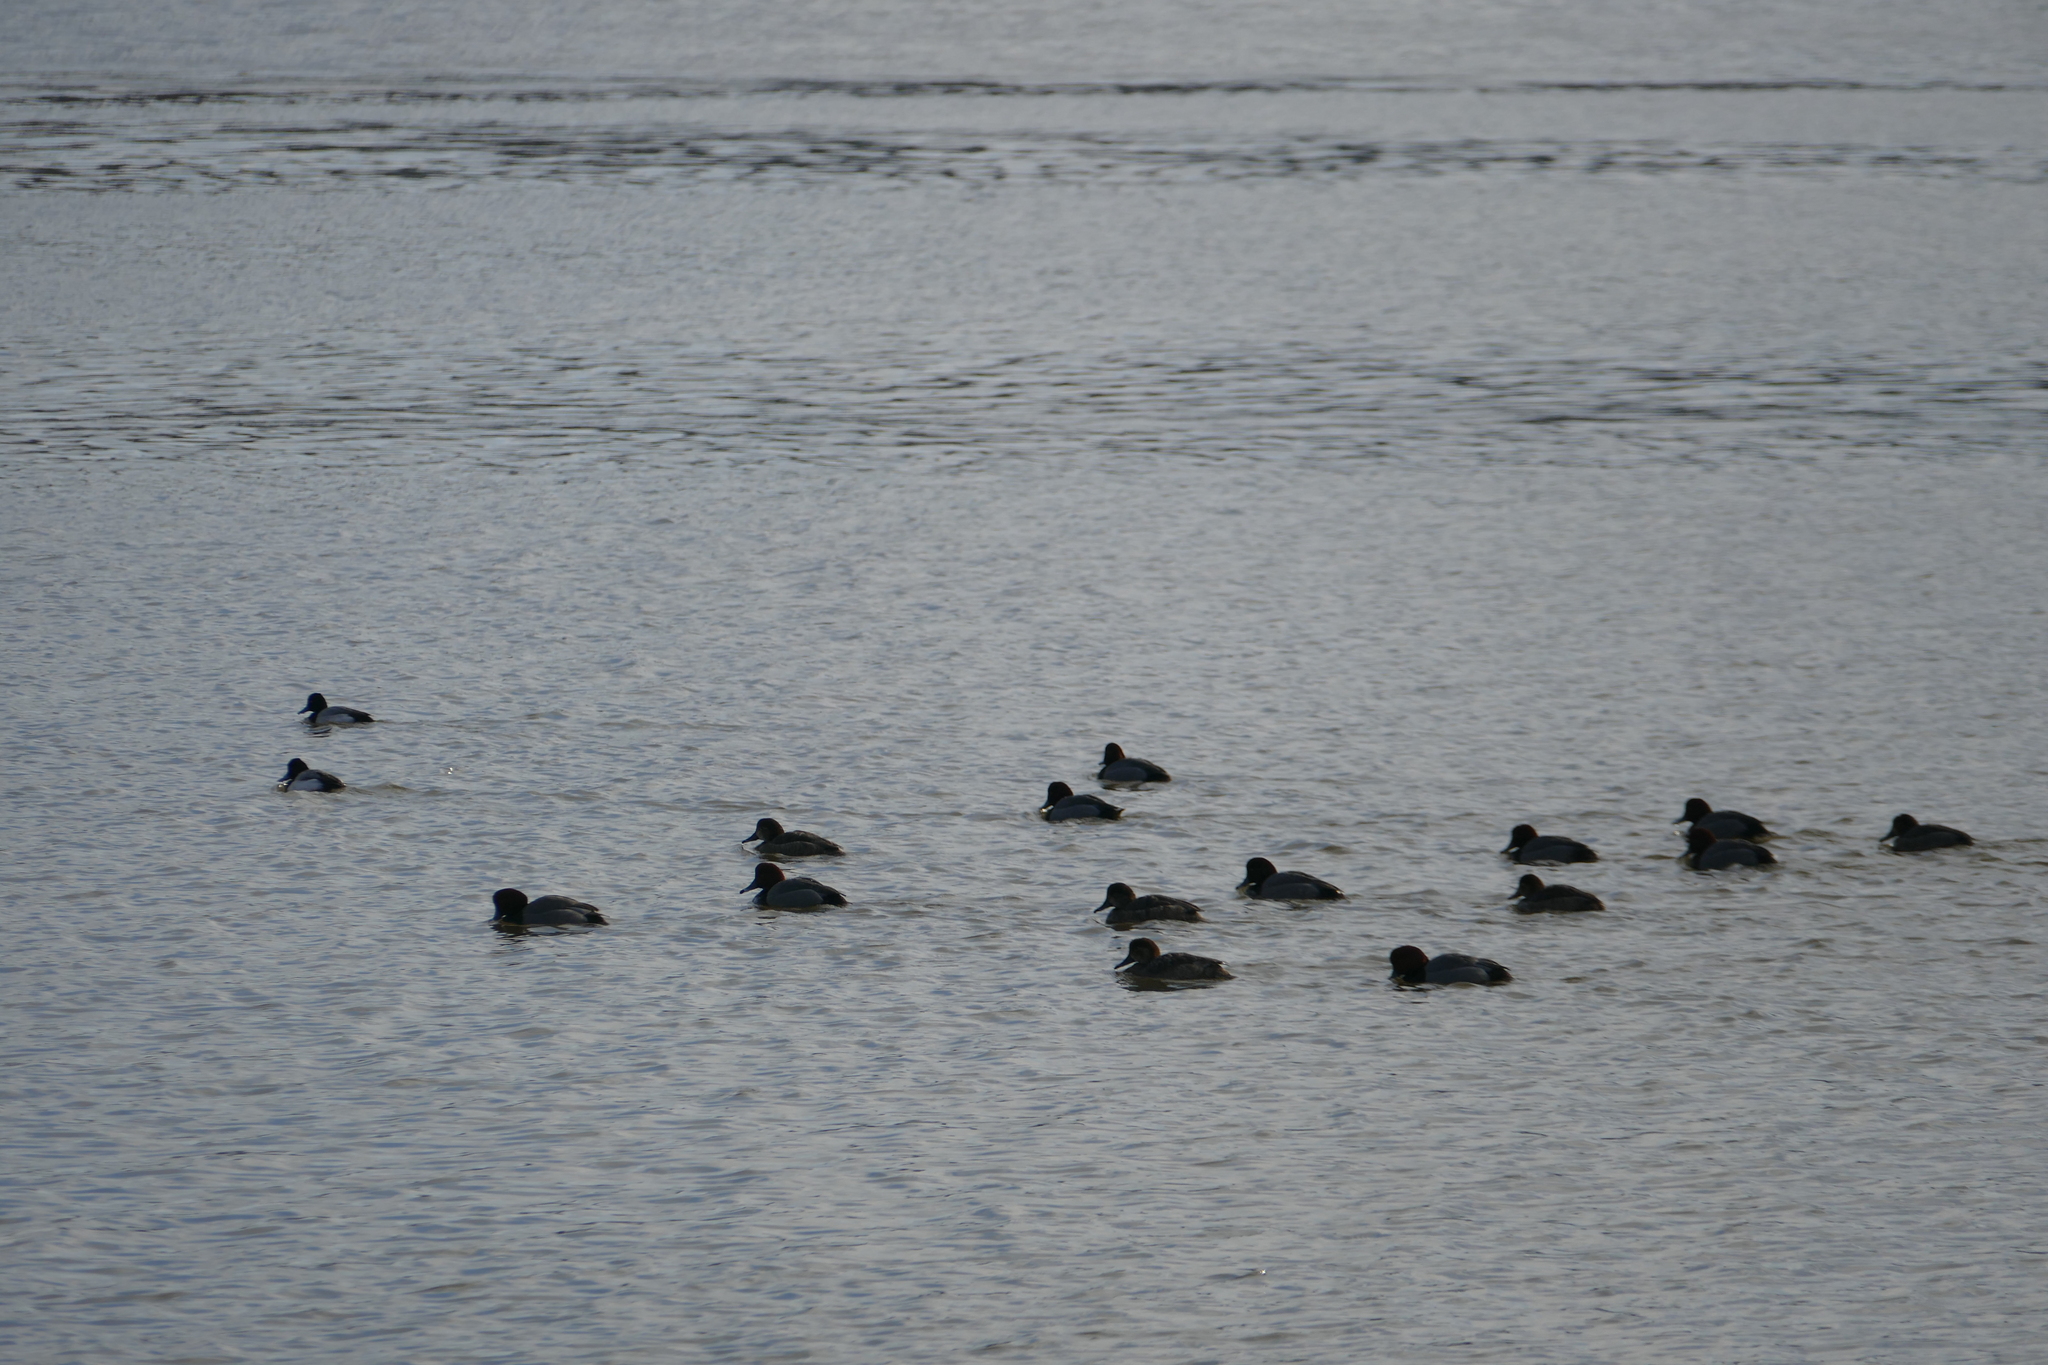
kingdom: Animalia
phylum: Chordata
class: Aves
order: Anseriformes
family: Anatidae
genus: Aythya
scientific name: Aythya americana
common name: Redhead
